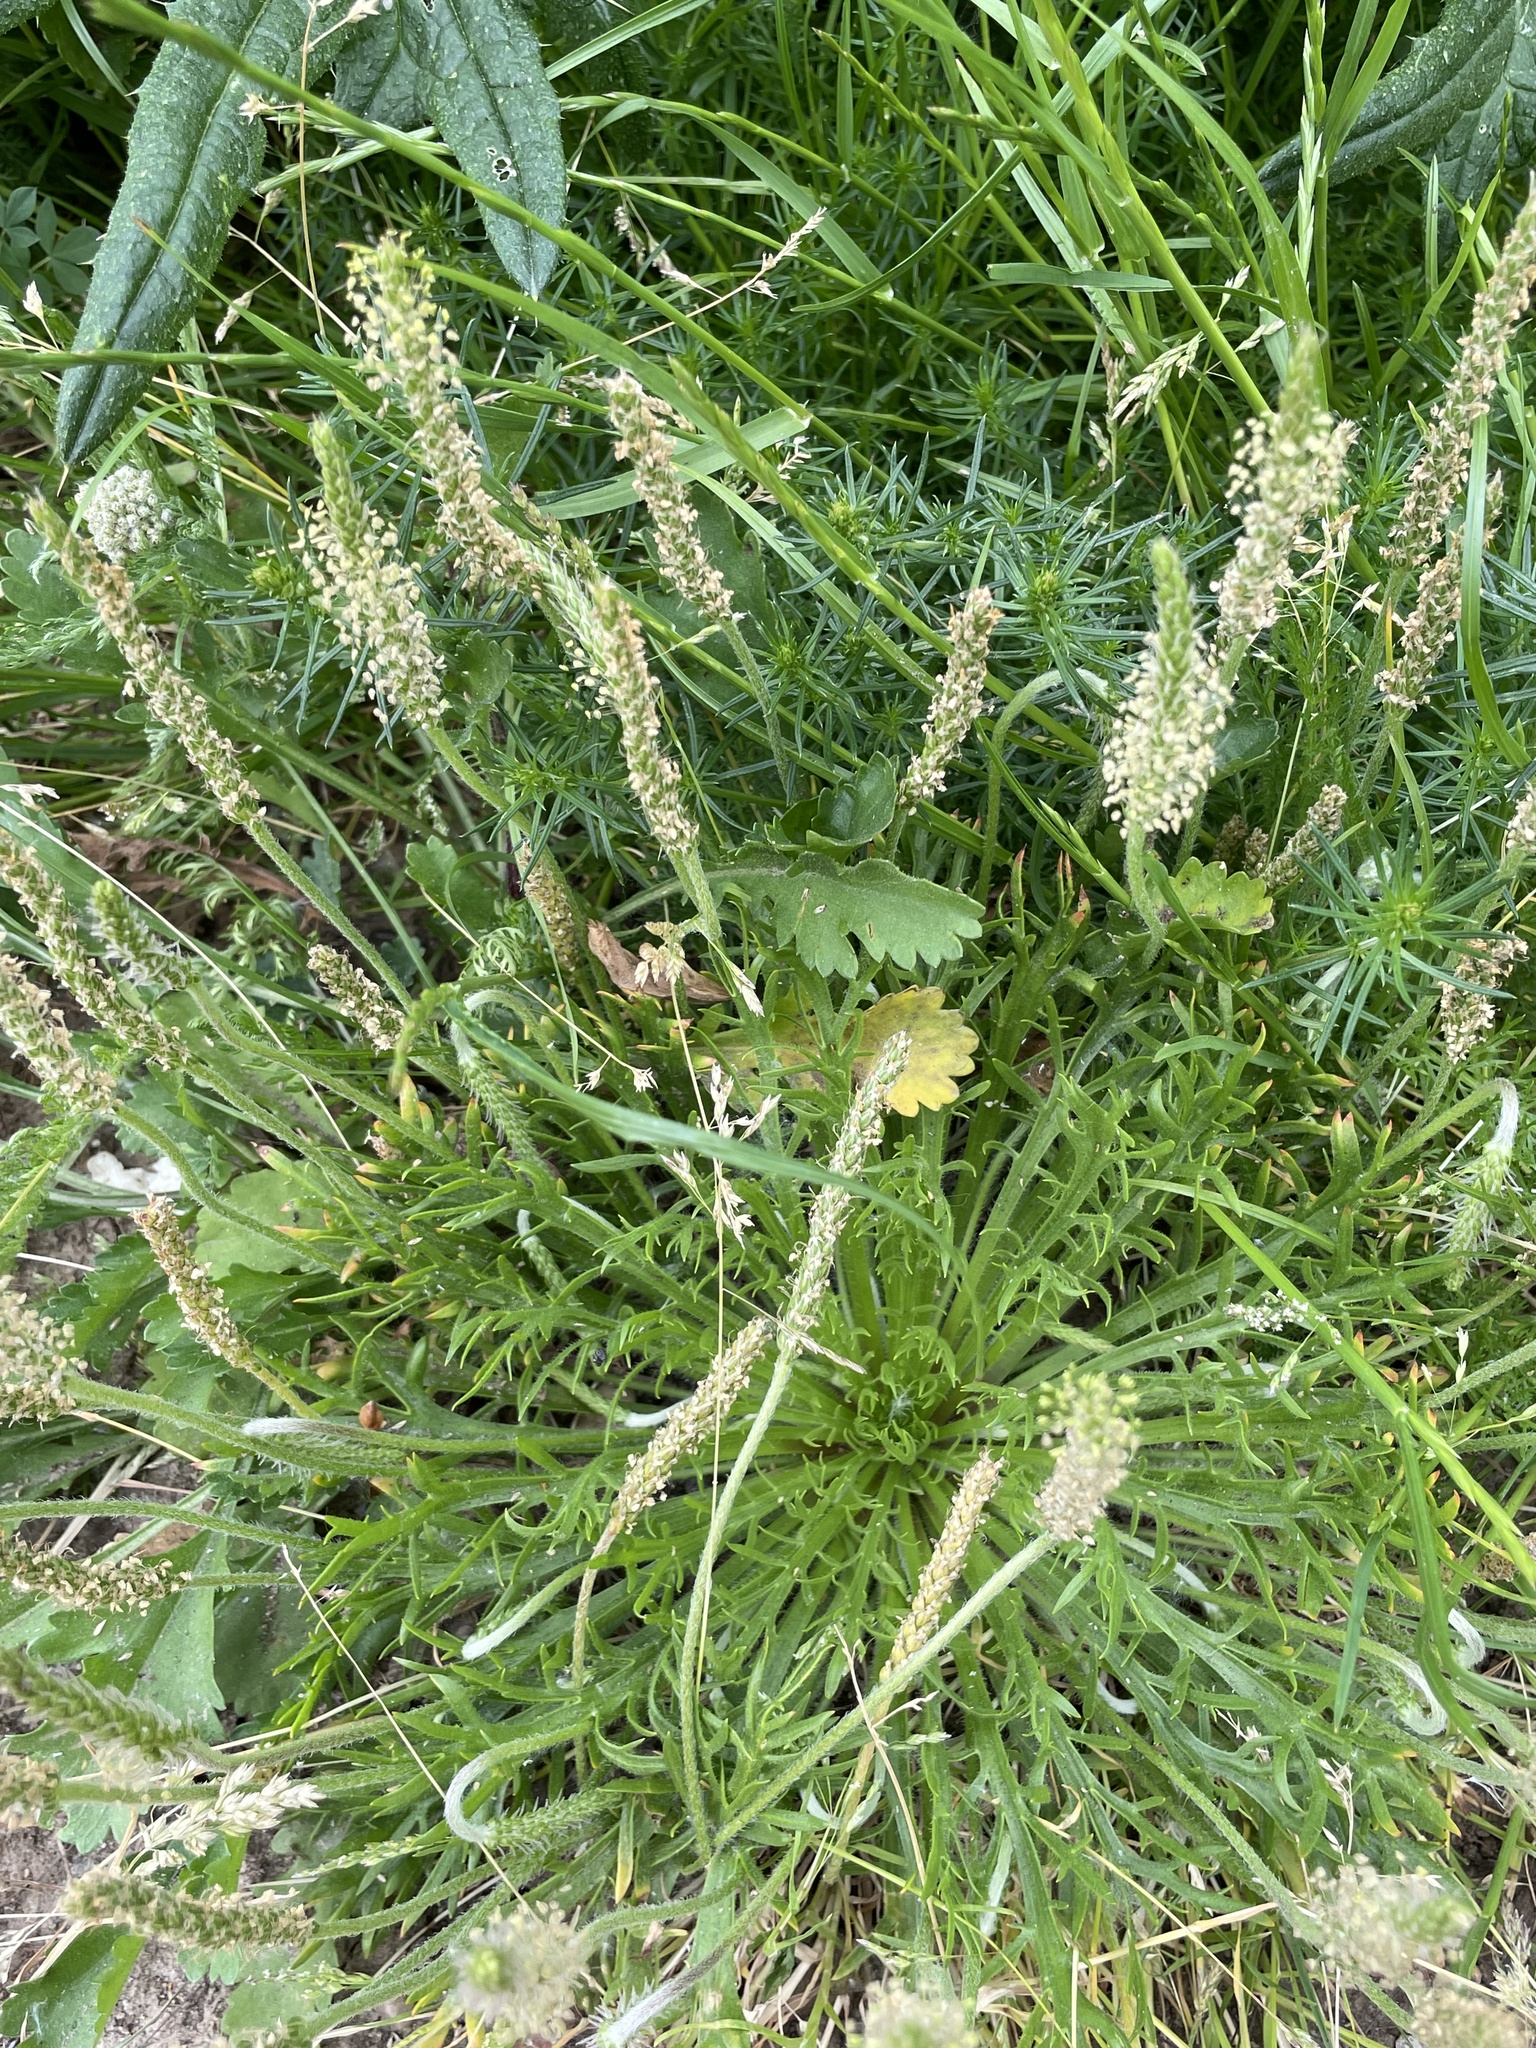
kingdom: Plantae
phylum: Tracheophyta
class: Magnoliopsida
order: Lamiales
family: Plantaginaceae
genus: Plantago
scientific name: Plantago coronopus
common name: Buck's-horn plantain
